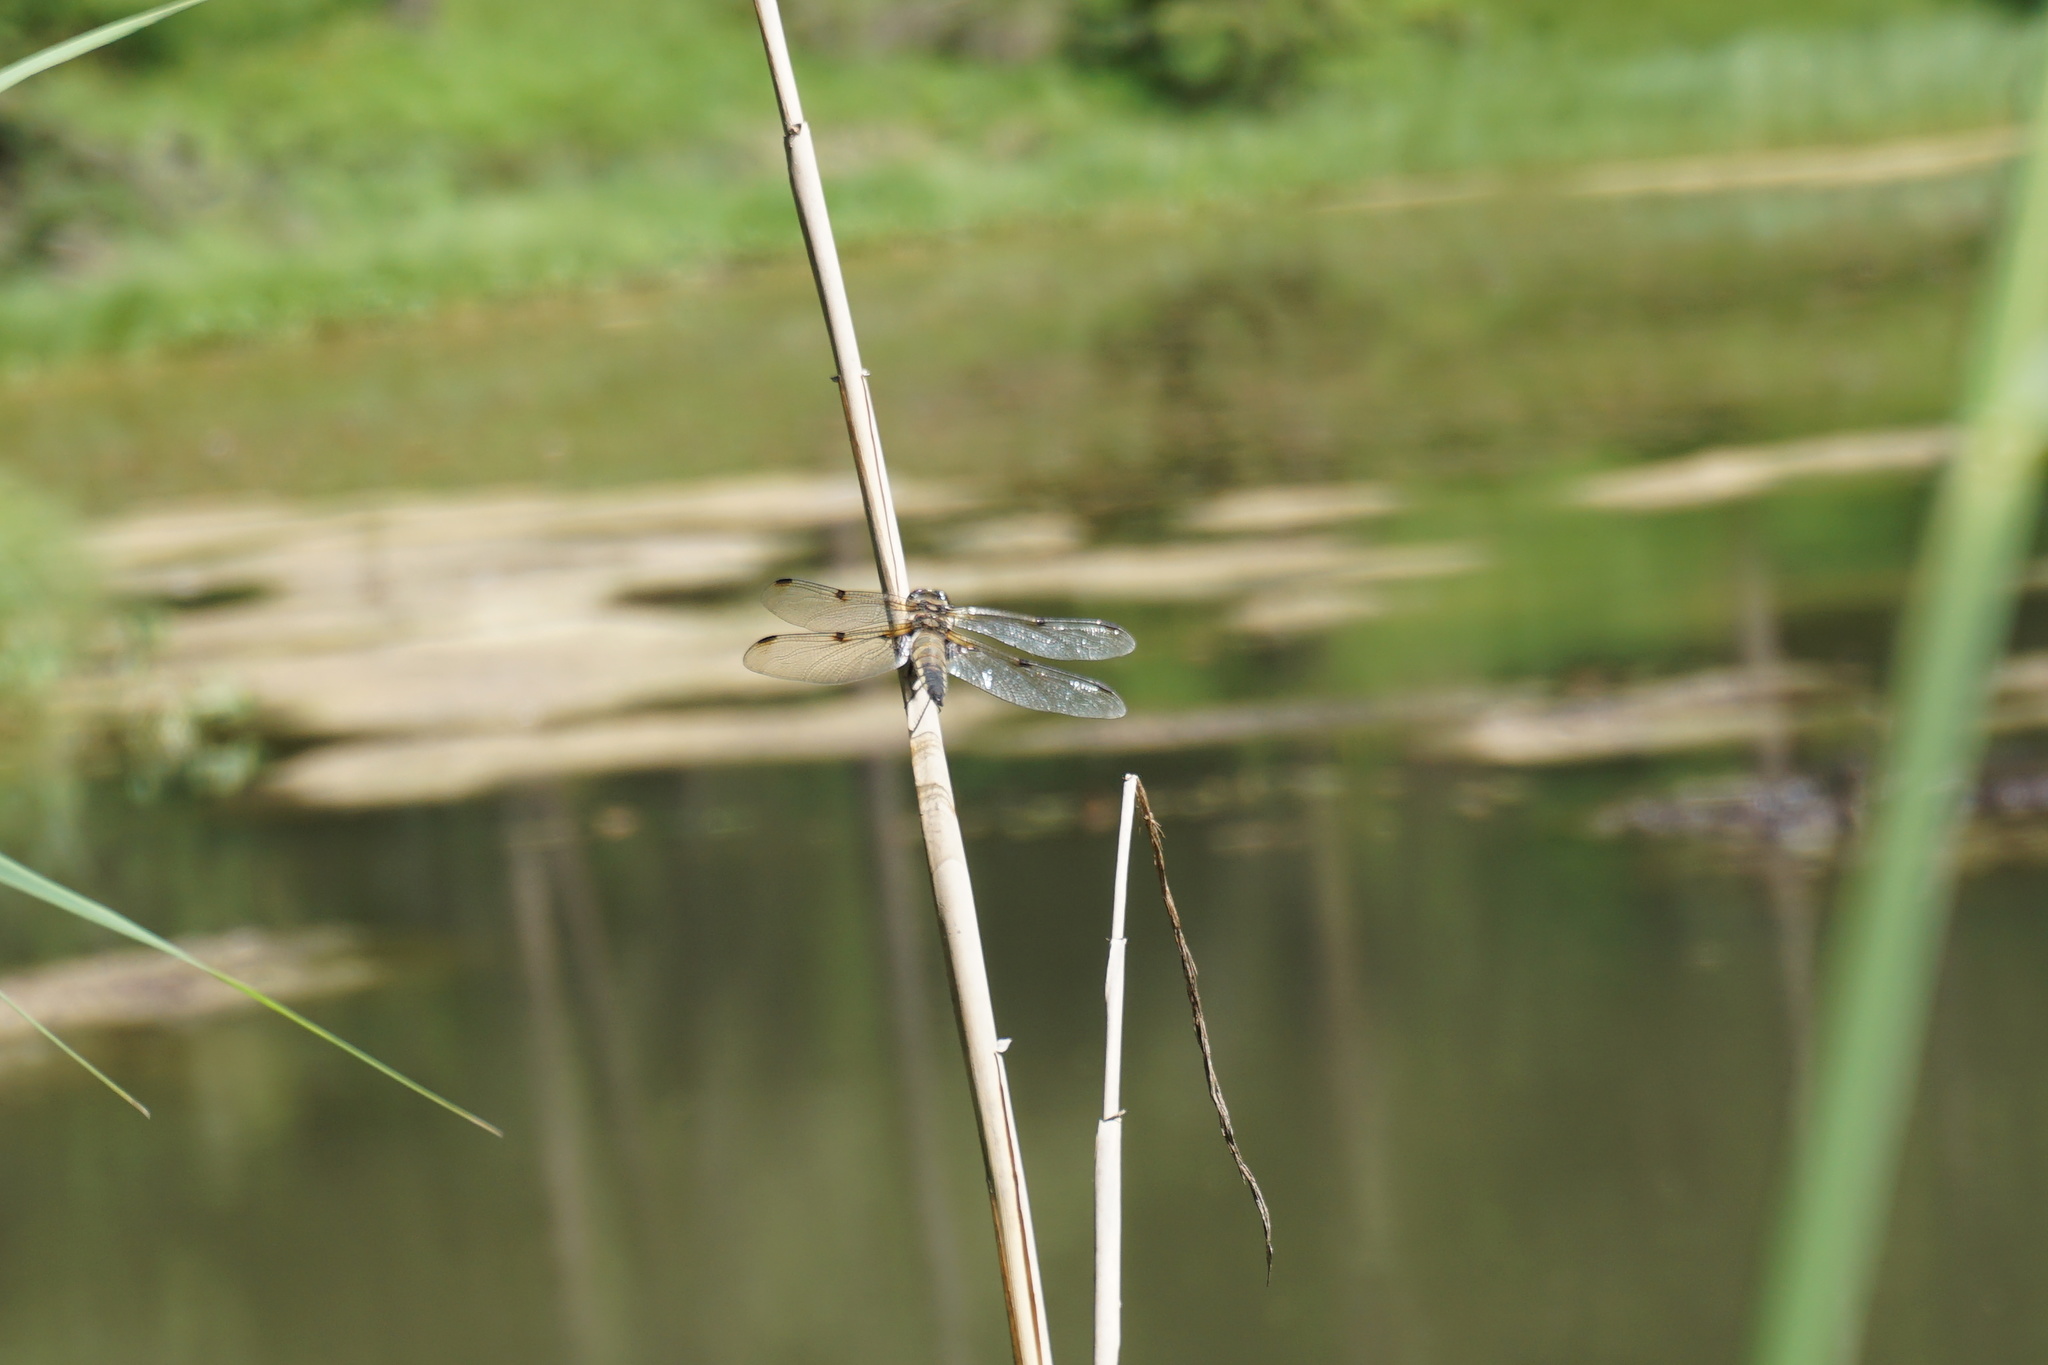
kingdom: Animalia
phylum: Arthropoda
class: Insecta
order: Odonata
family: Libellulidae
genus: Libellula
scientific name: Libellula quadrimaculata
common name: Four-spotted chaser
